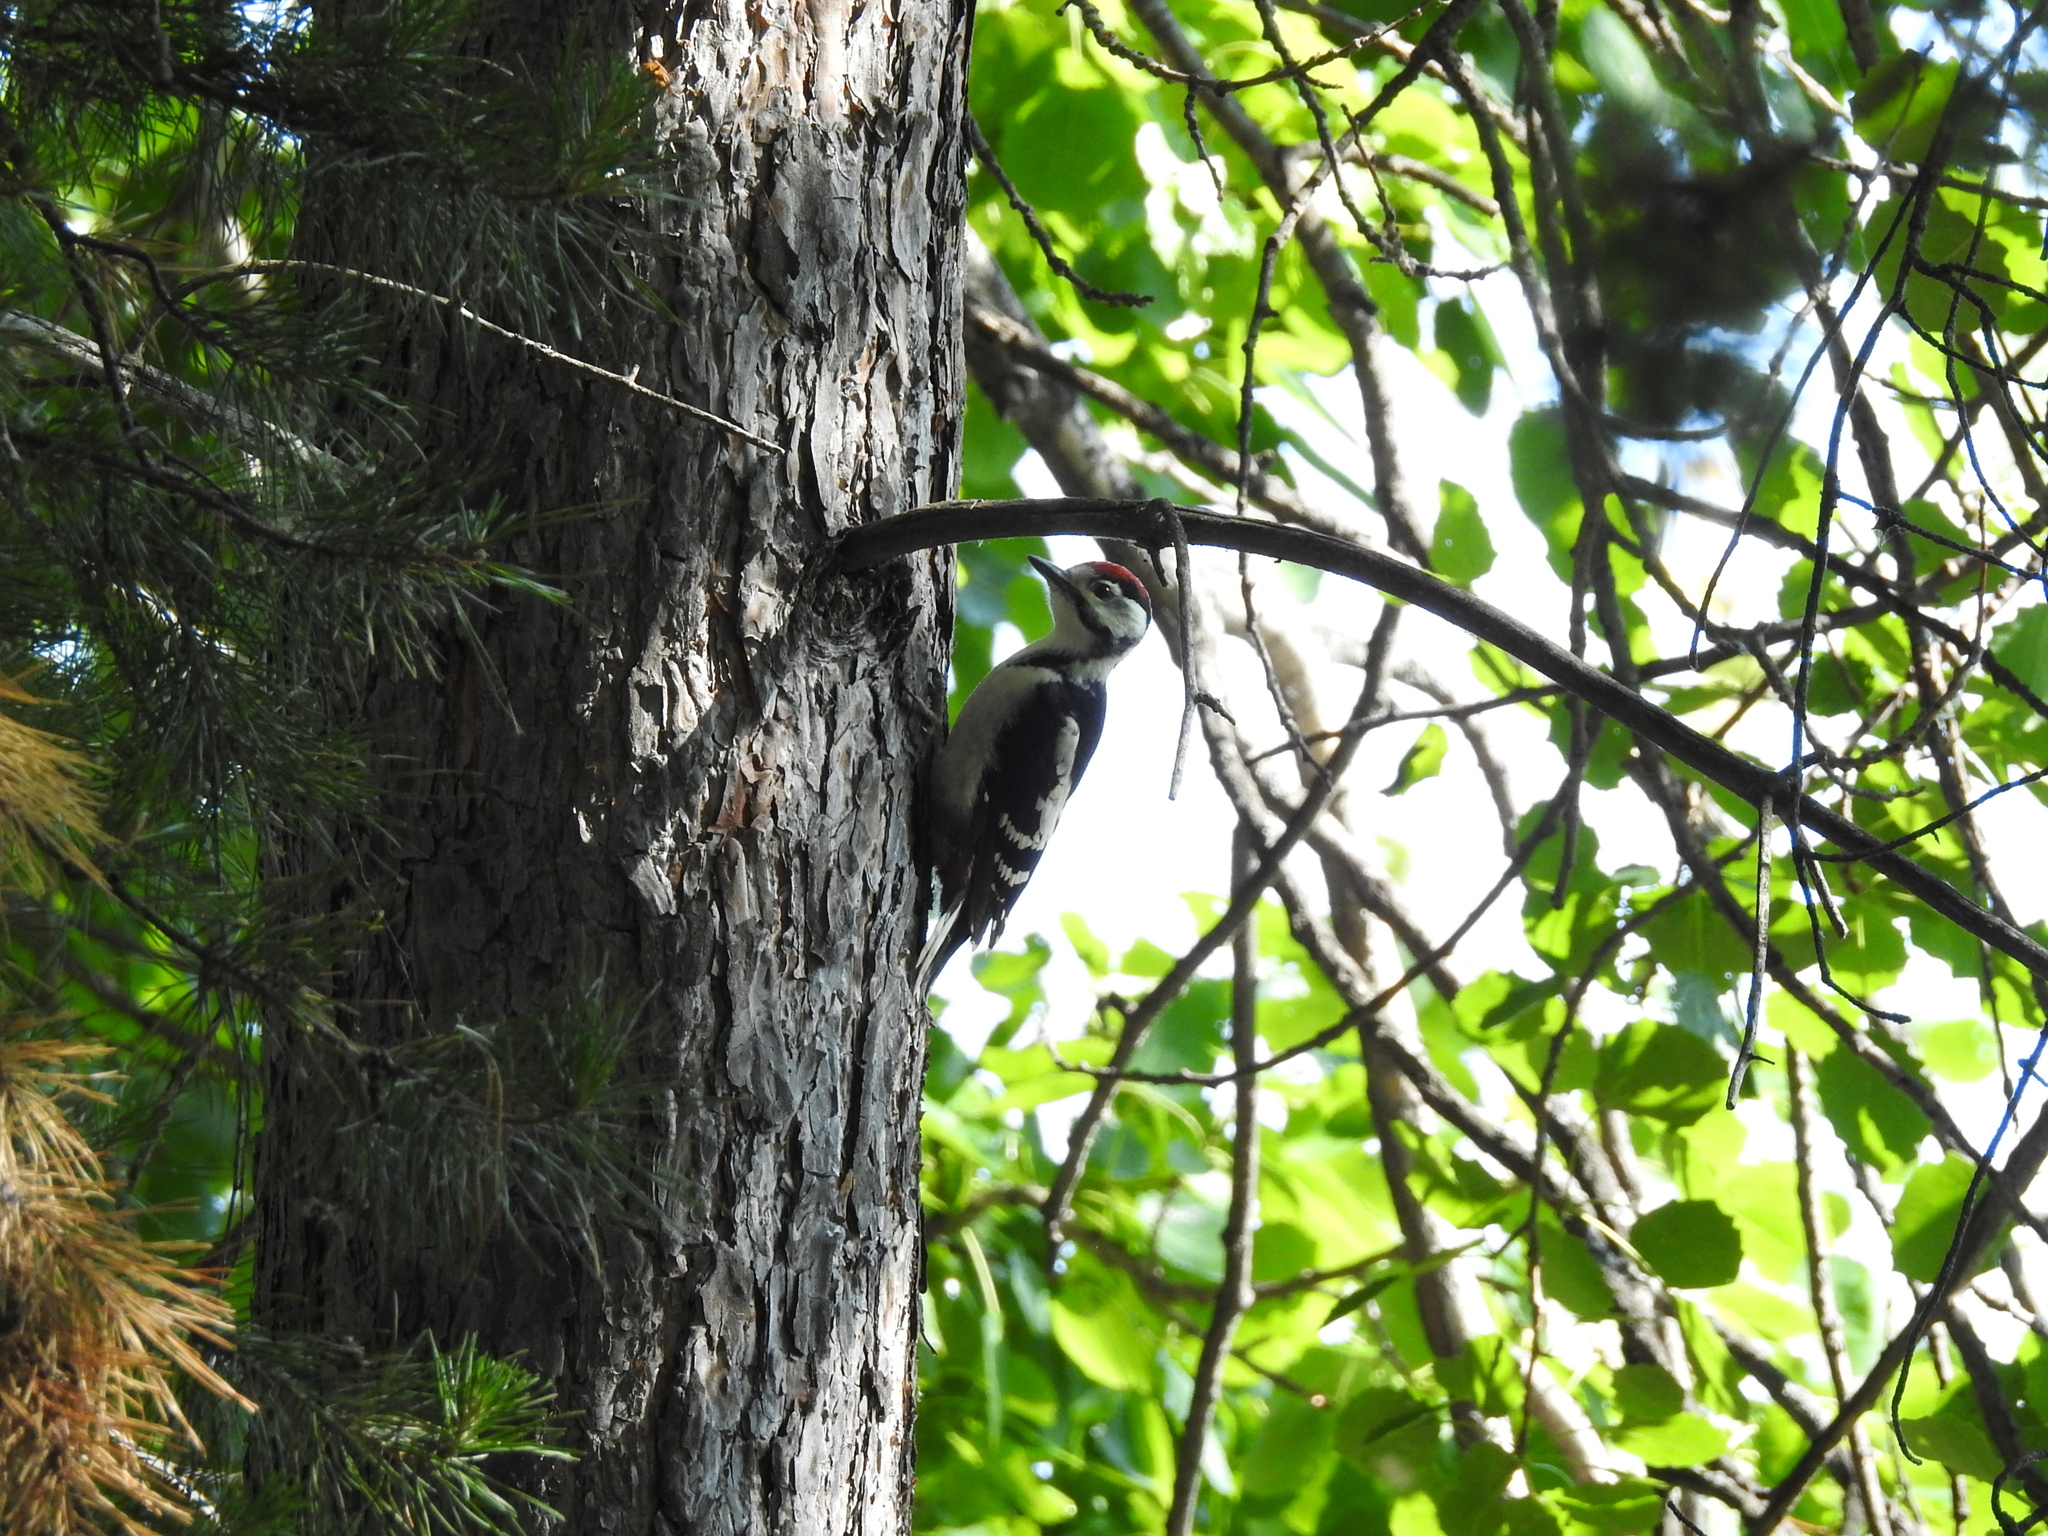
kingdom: Animalia
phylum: Chordata
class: Aves
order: Piciformes
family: Picidae
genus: Dendrocopos
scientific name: Dendrocopos major
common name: Great spotted woodpecker
